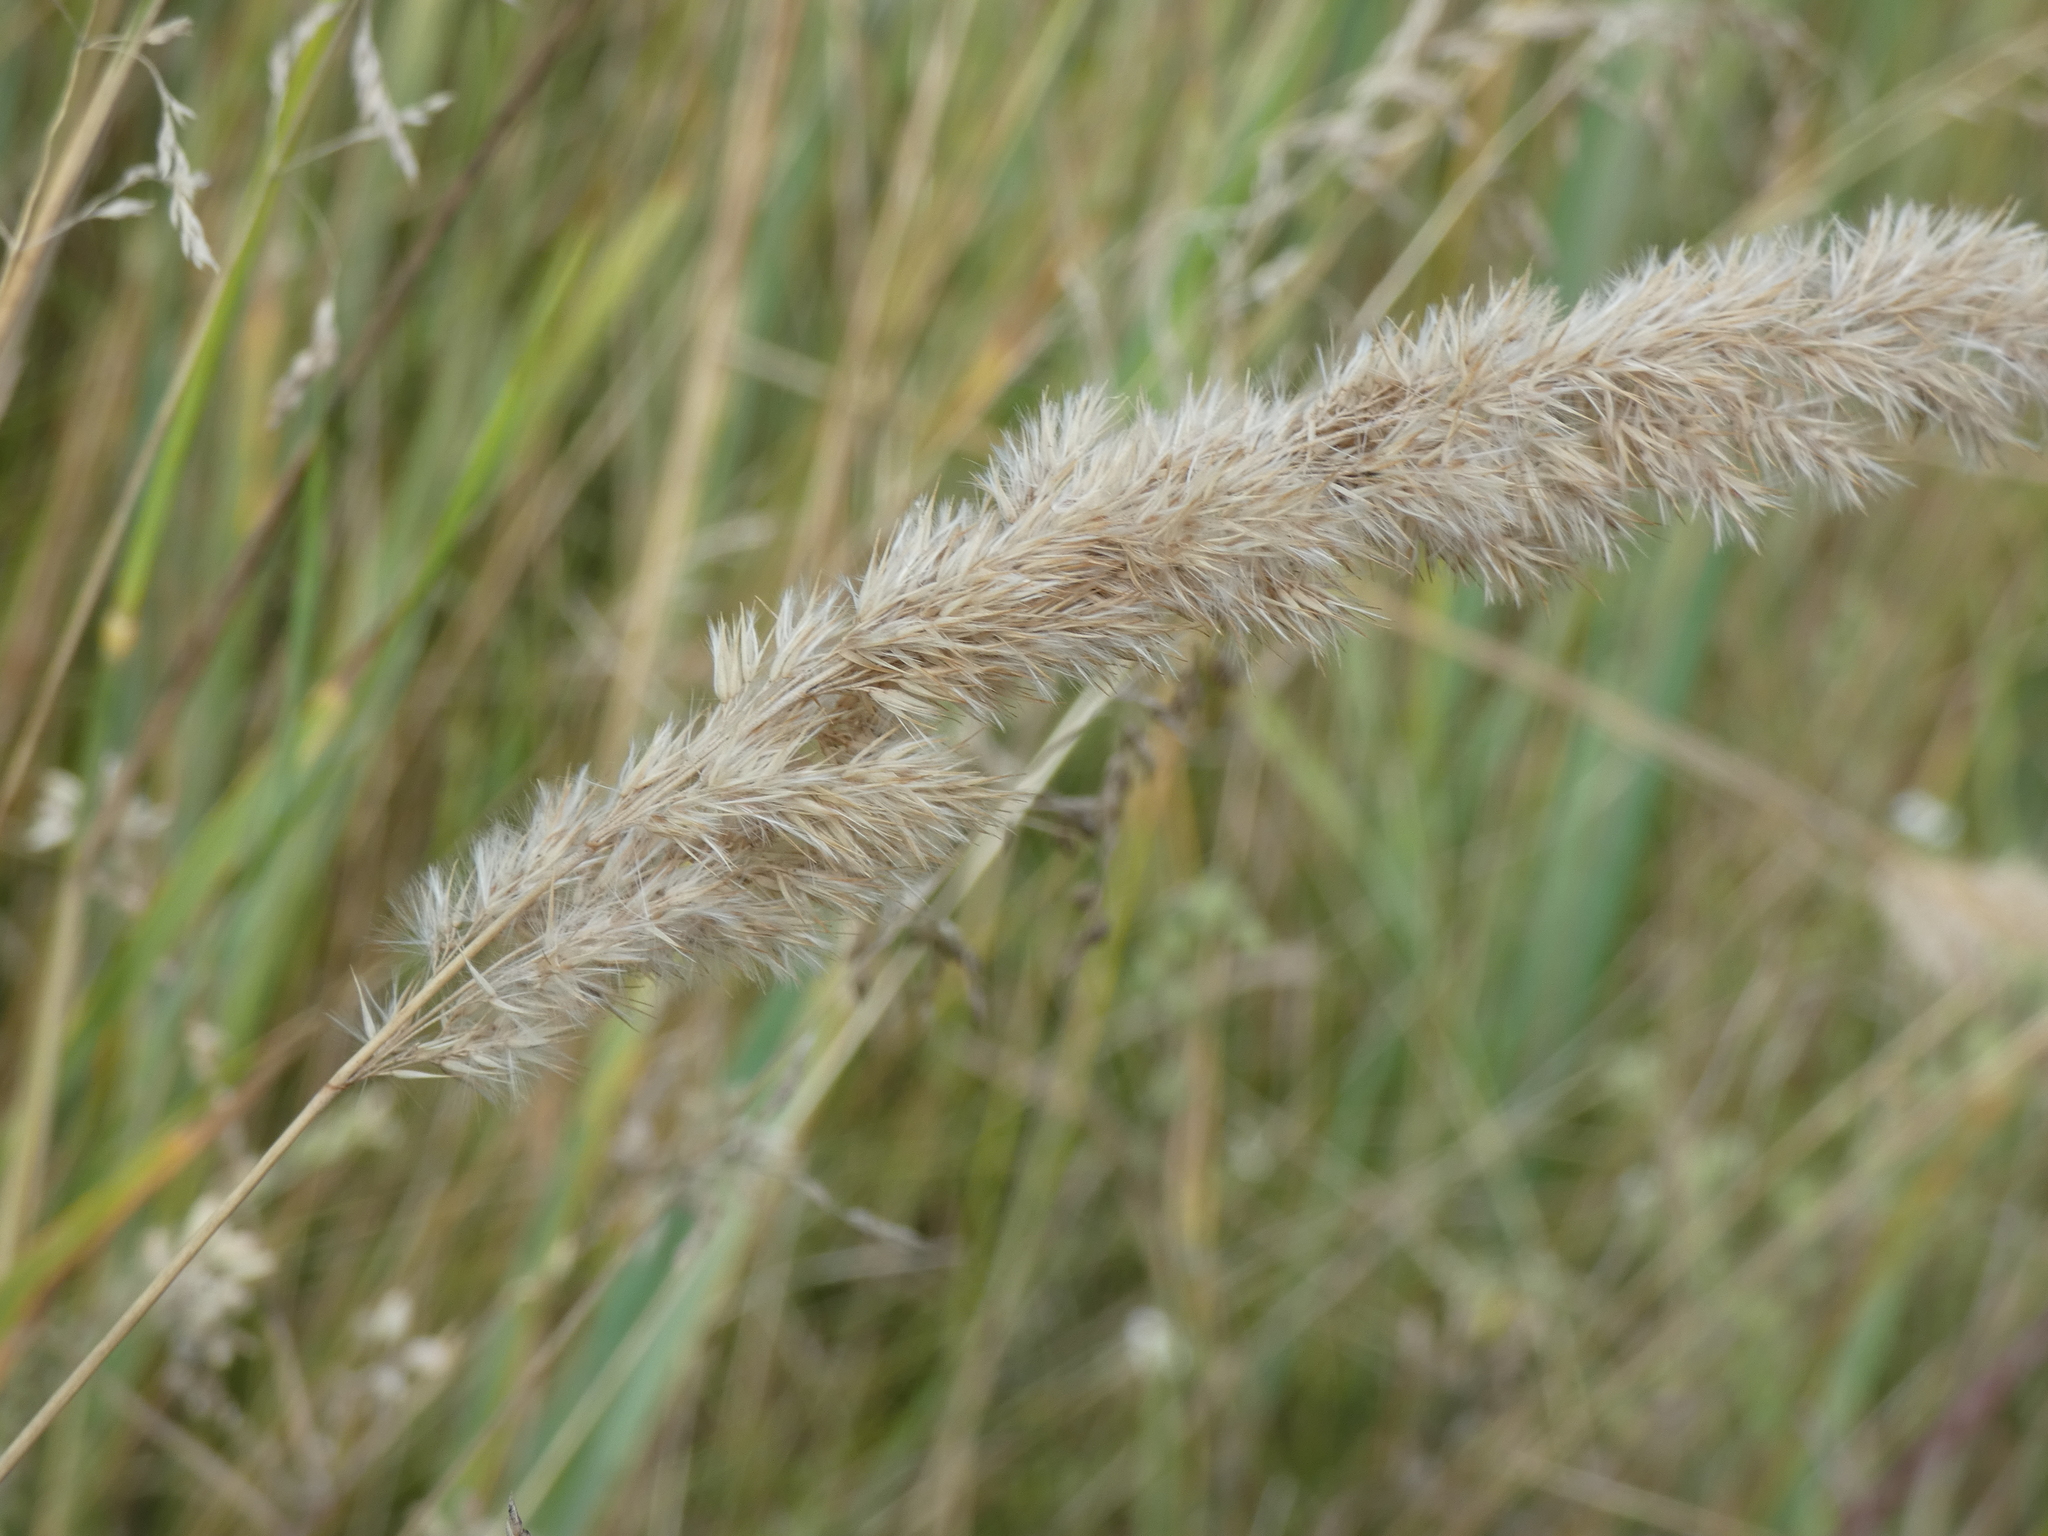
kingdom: Plantae
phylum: Tracheophyta
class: Liliopsida
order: Poales
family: Poaceae
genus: Calamagrostis
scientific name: Calamagrostis epigejos
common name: Wood small-reed
